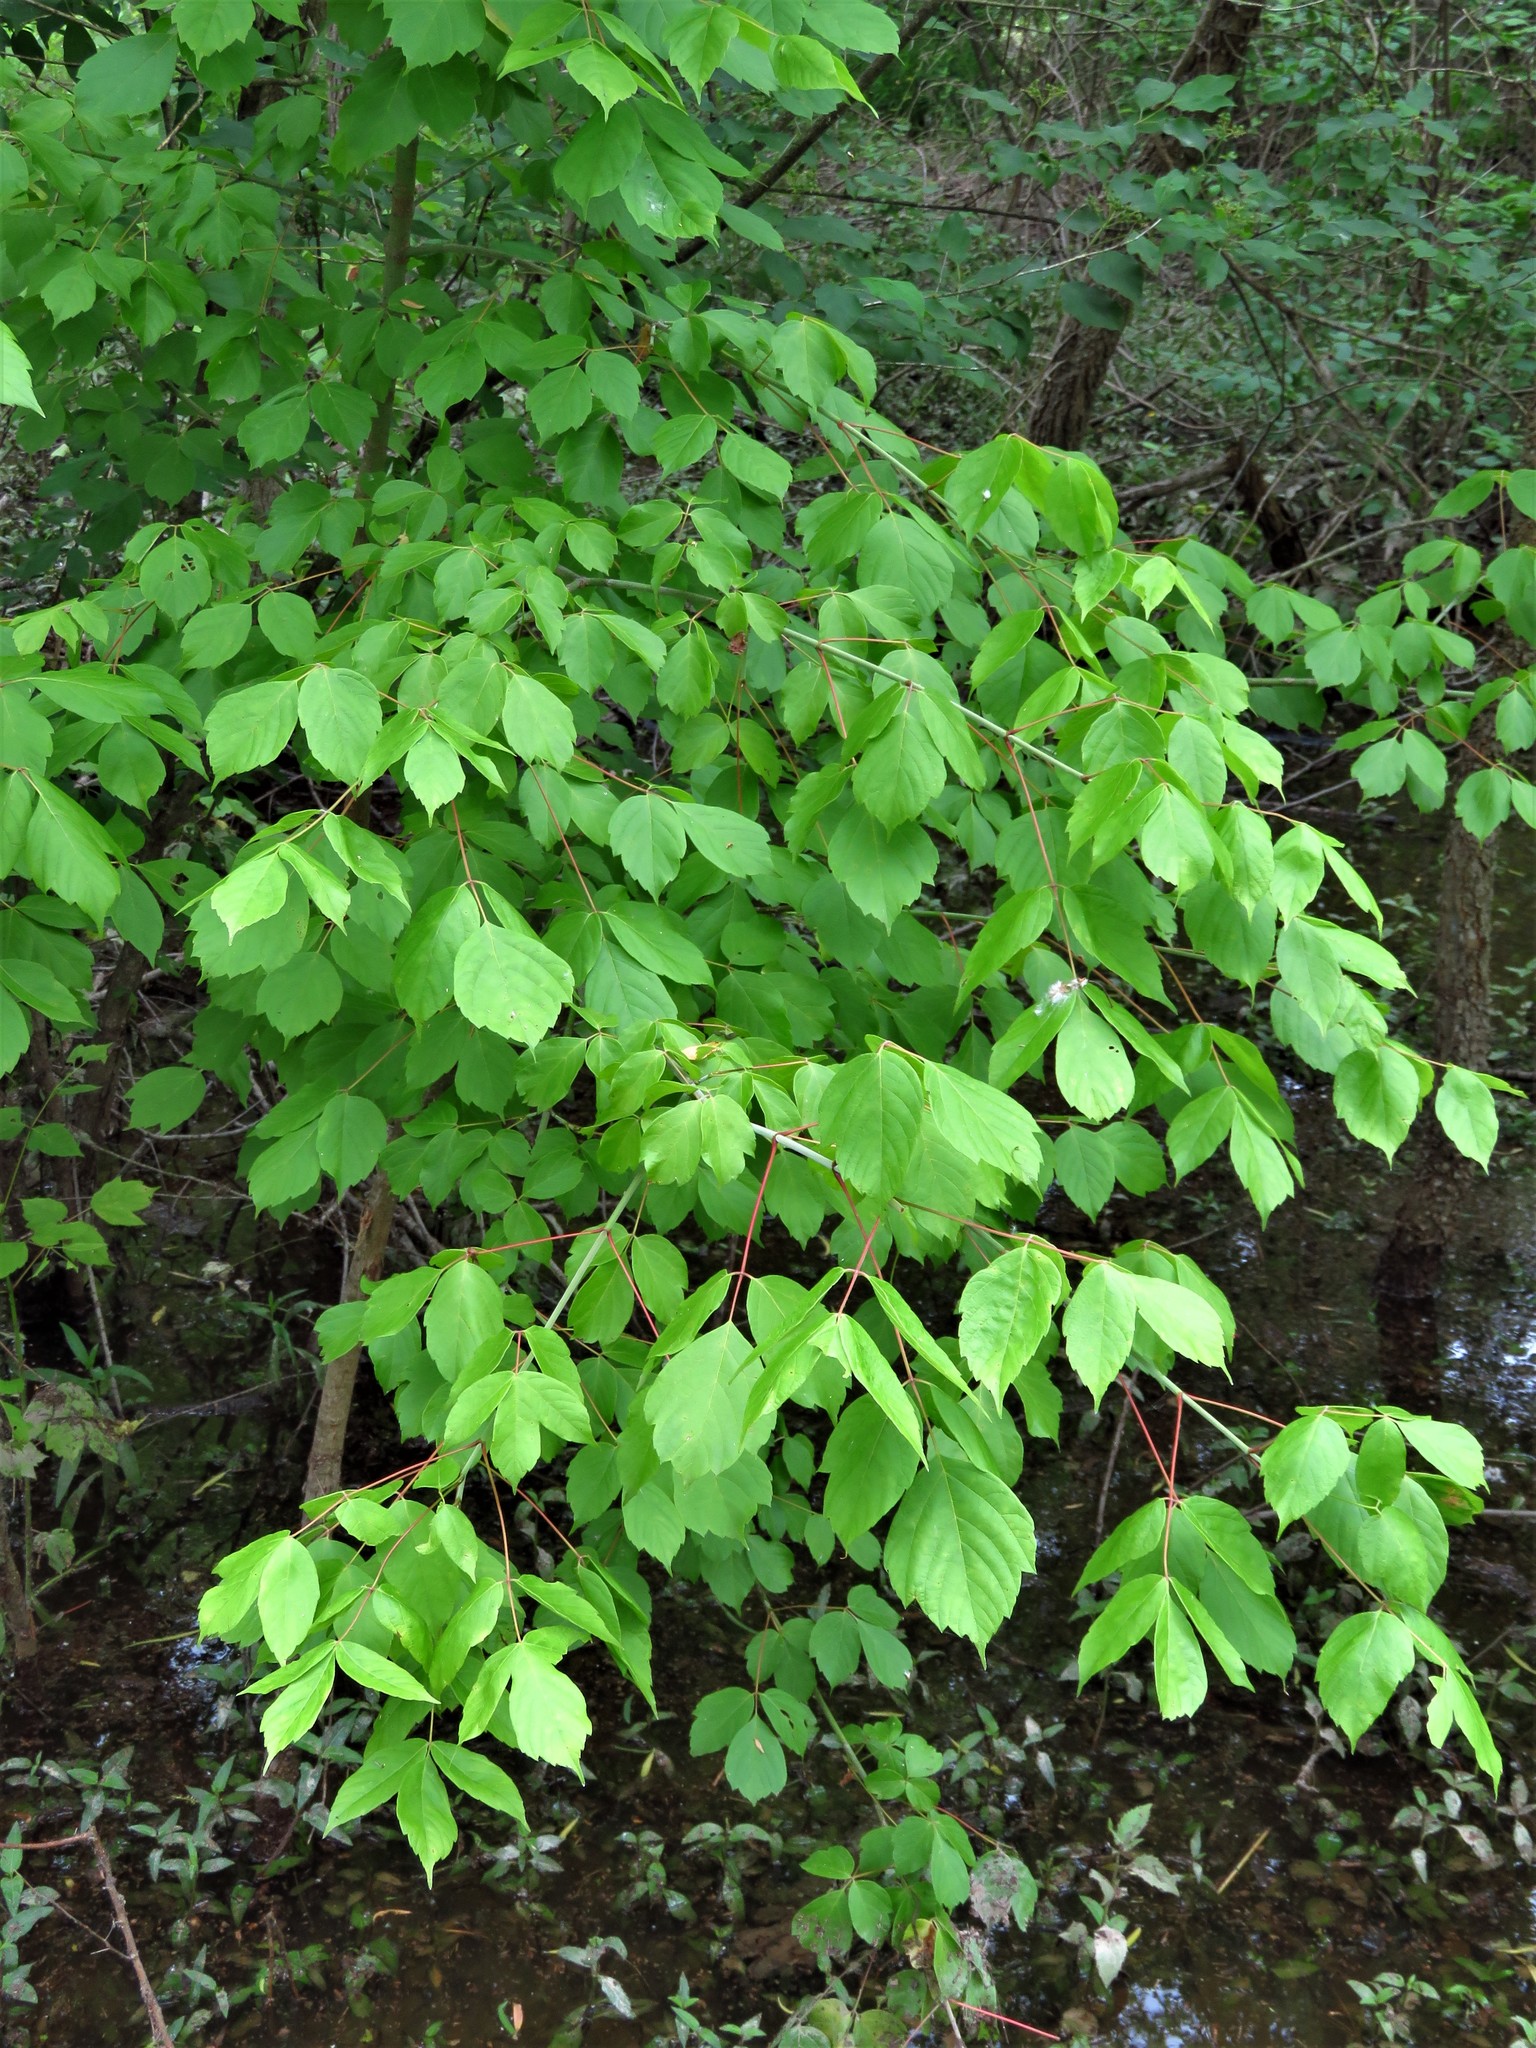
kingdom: Plantae
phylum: Tracheophyta
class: Magnoliopsida
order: Sapindales
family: Sapindaceae
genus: Acer
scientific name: Acer negundo
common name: Ashleaf maple
